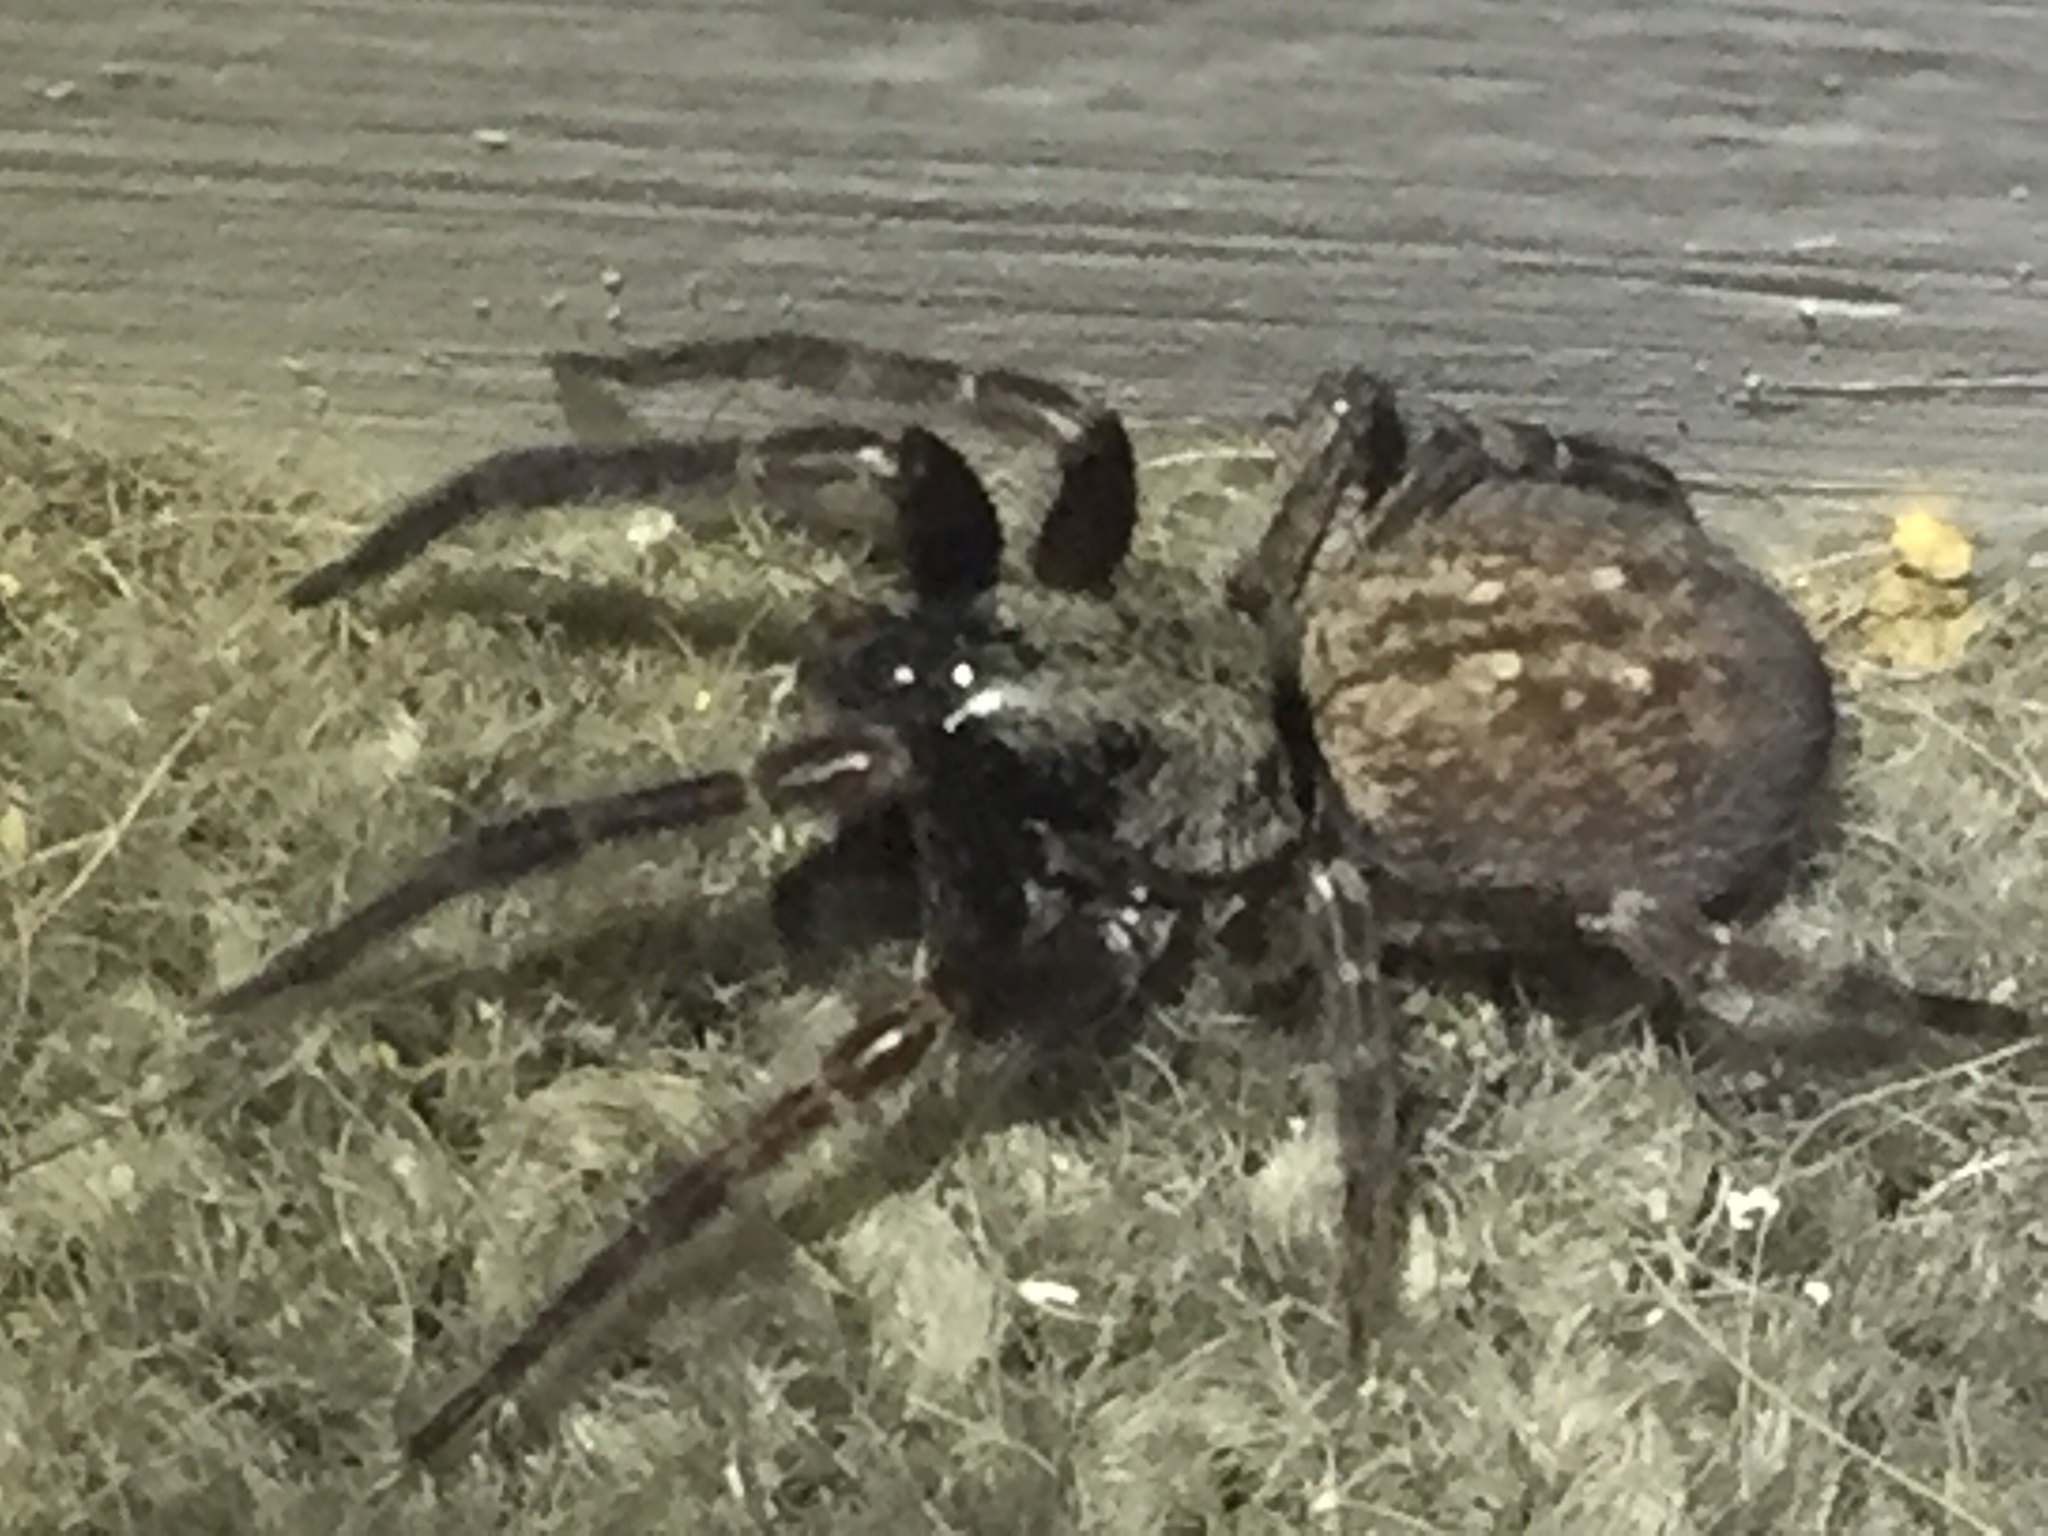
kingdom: Animalia
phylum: Arthropoda
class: Arachnida
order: Araneae
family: Desidae
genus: Badumna
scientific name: Badumna longinqua
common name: Gray house spider
